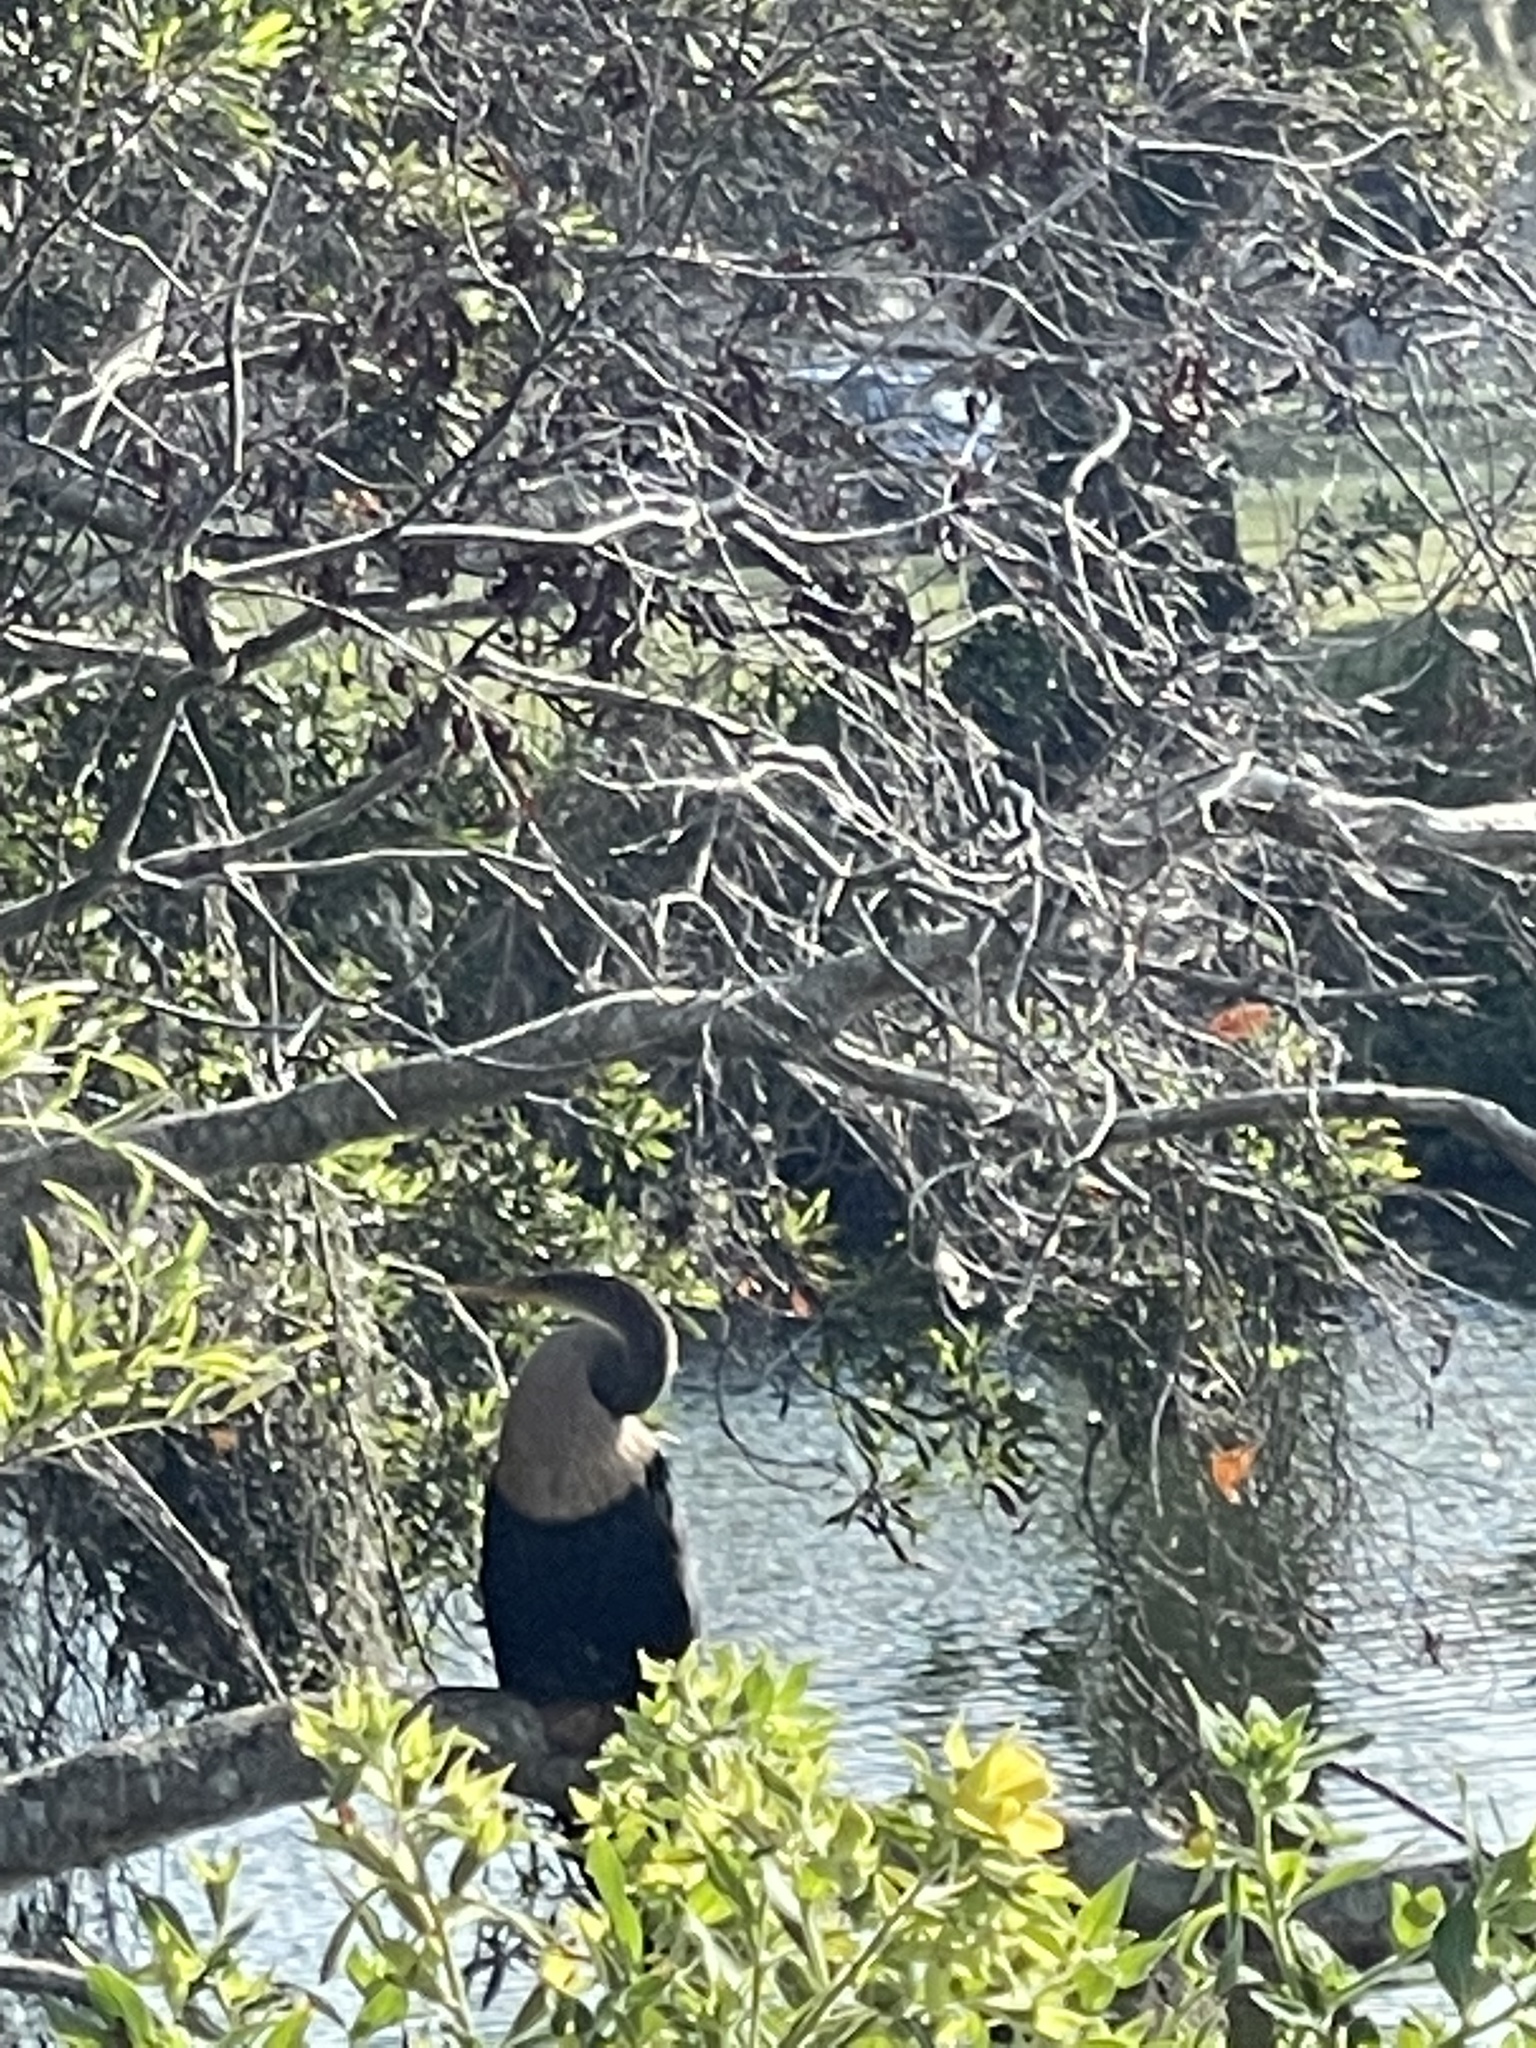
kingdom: Animalia
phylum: Chordata
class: Aves
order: Suliformes
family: Anhingidae
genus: Anhinga
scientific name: Anhinga anhinga
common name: Anhinga
